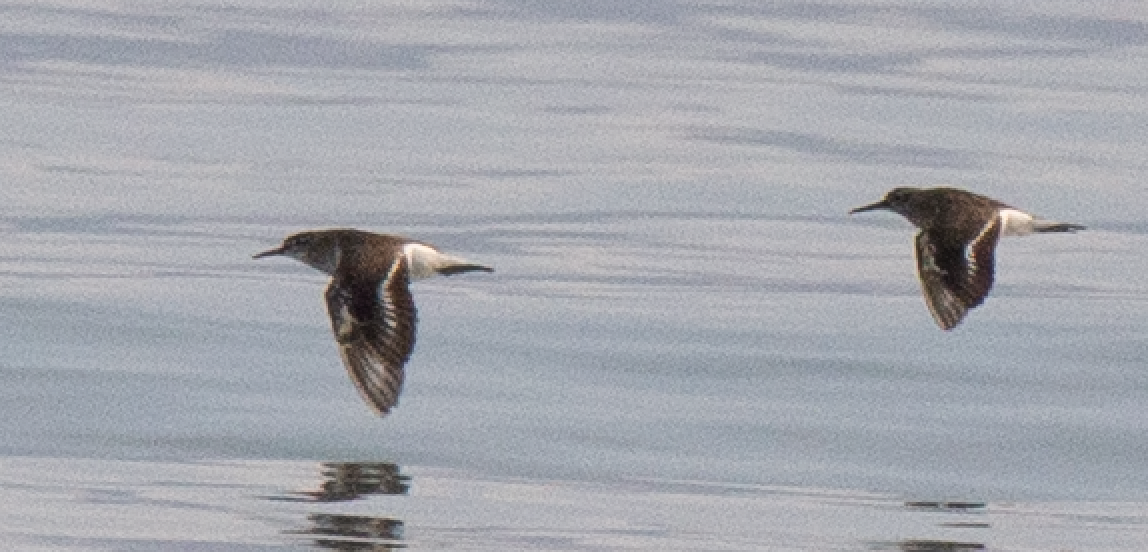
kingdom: Animalia
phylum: Chordata
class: Aves
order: Charadriiformes
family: Scolopacidae
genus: Actitis
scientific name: Actitis hypoleucos
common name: Common sandpiper
